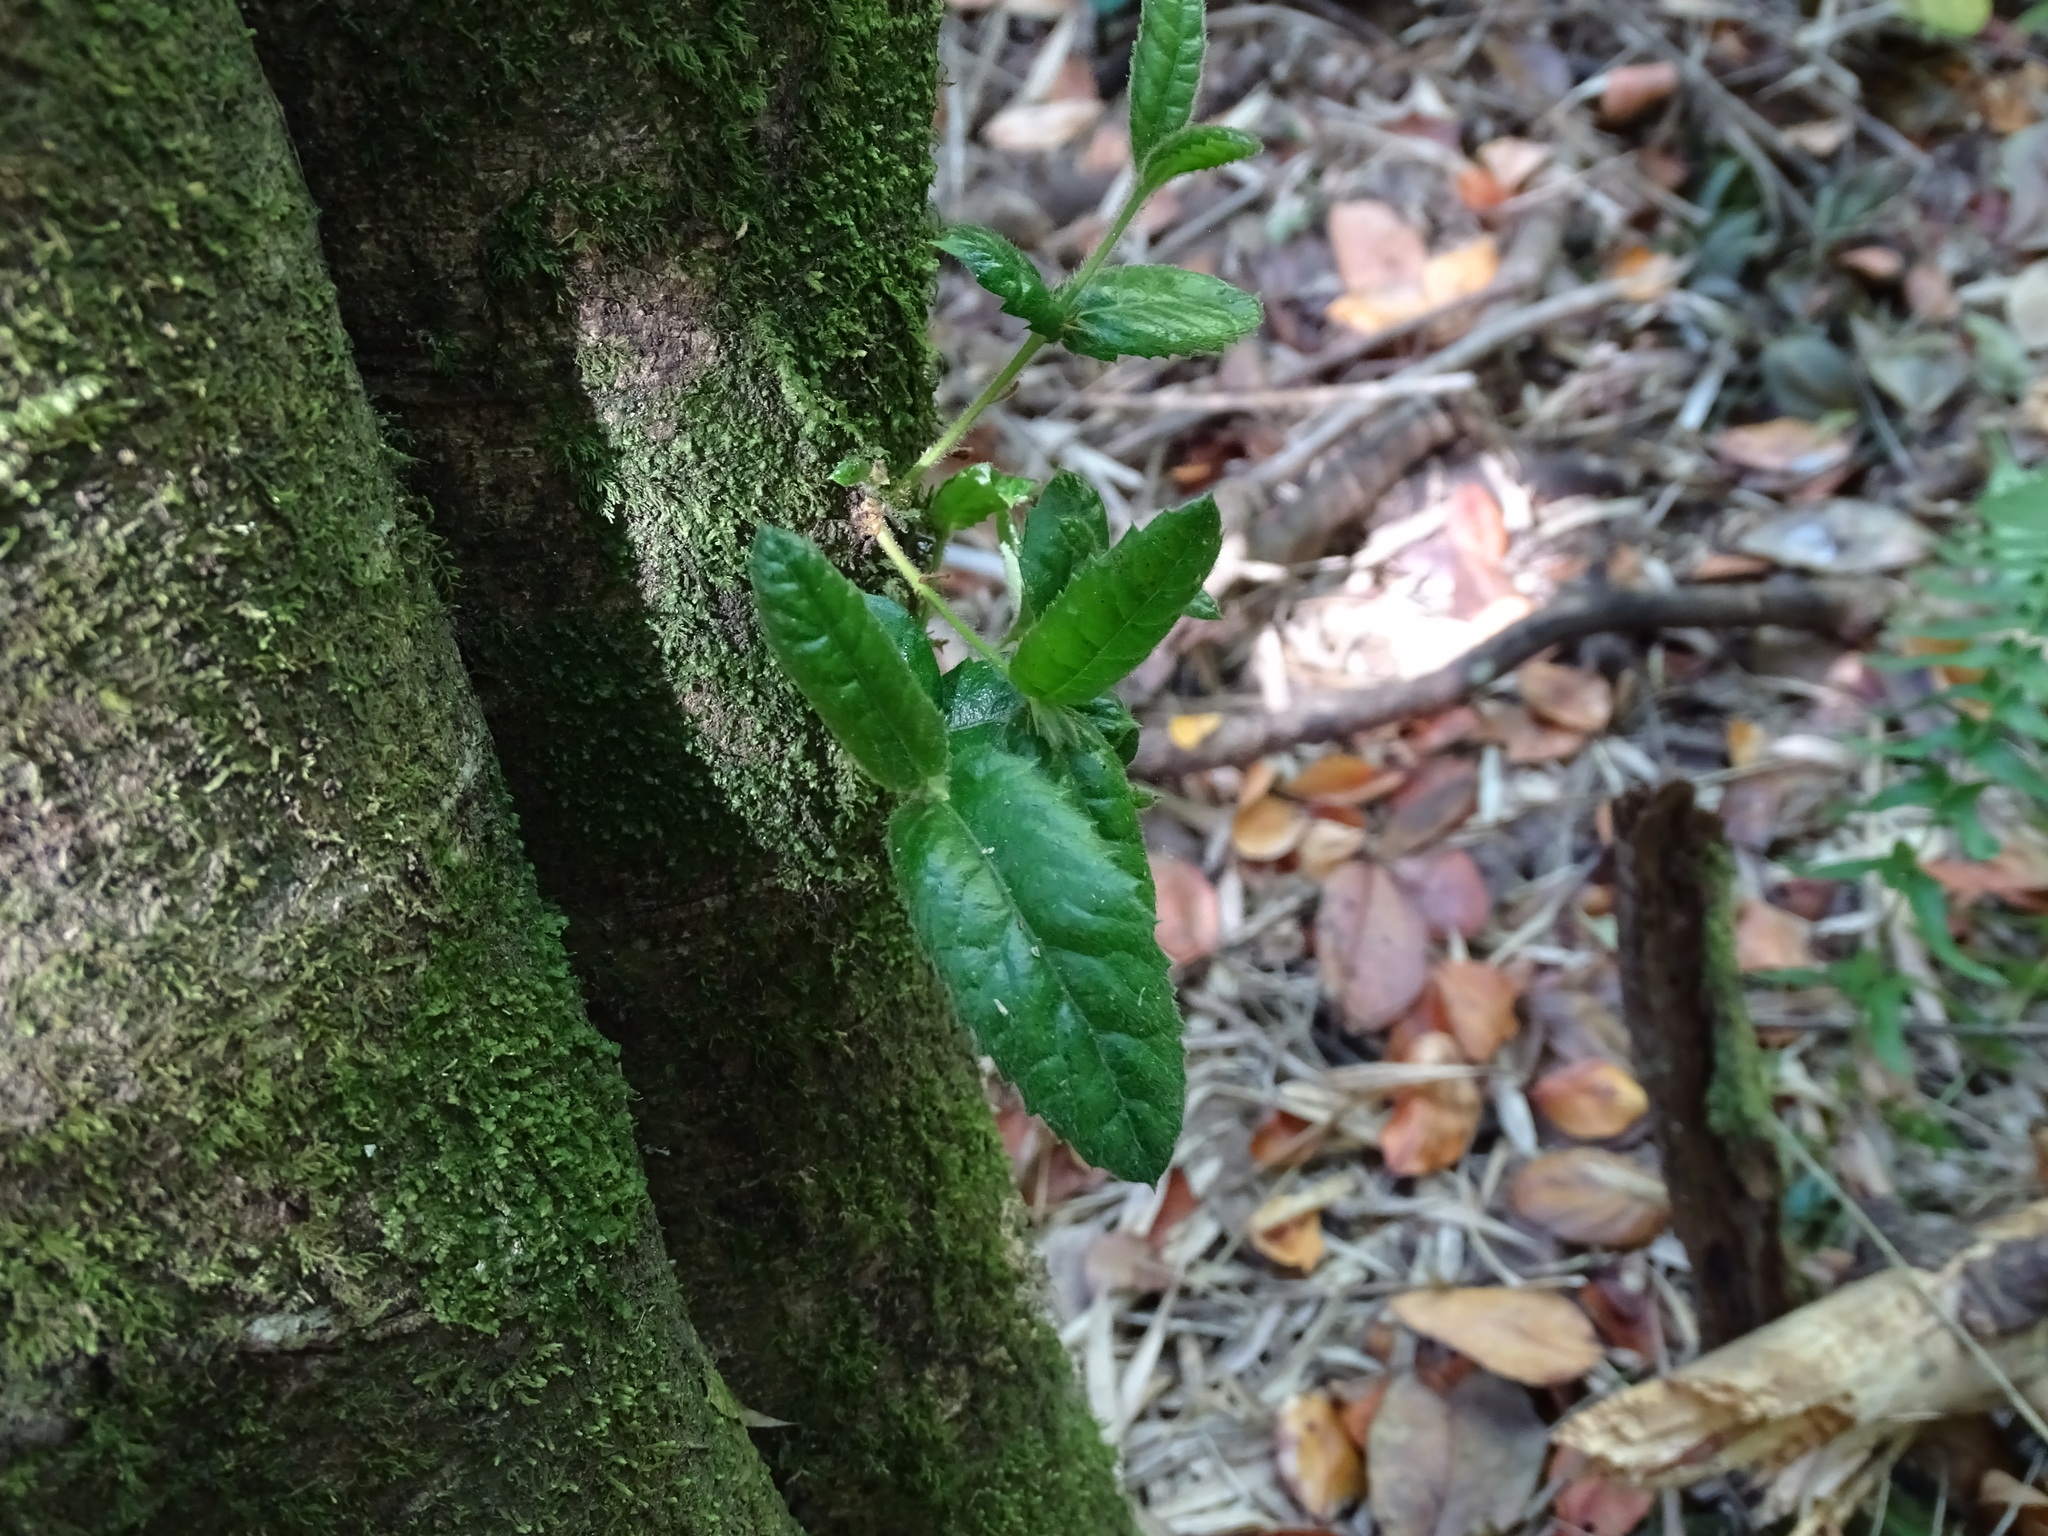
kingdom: Plantae
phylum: Tracheophyta
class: Magnoliopsida
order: Oxalidales
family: Cunoniaceae
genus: Eucryphia
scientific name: Eucryphia cordifolia
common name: Ulmo
